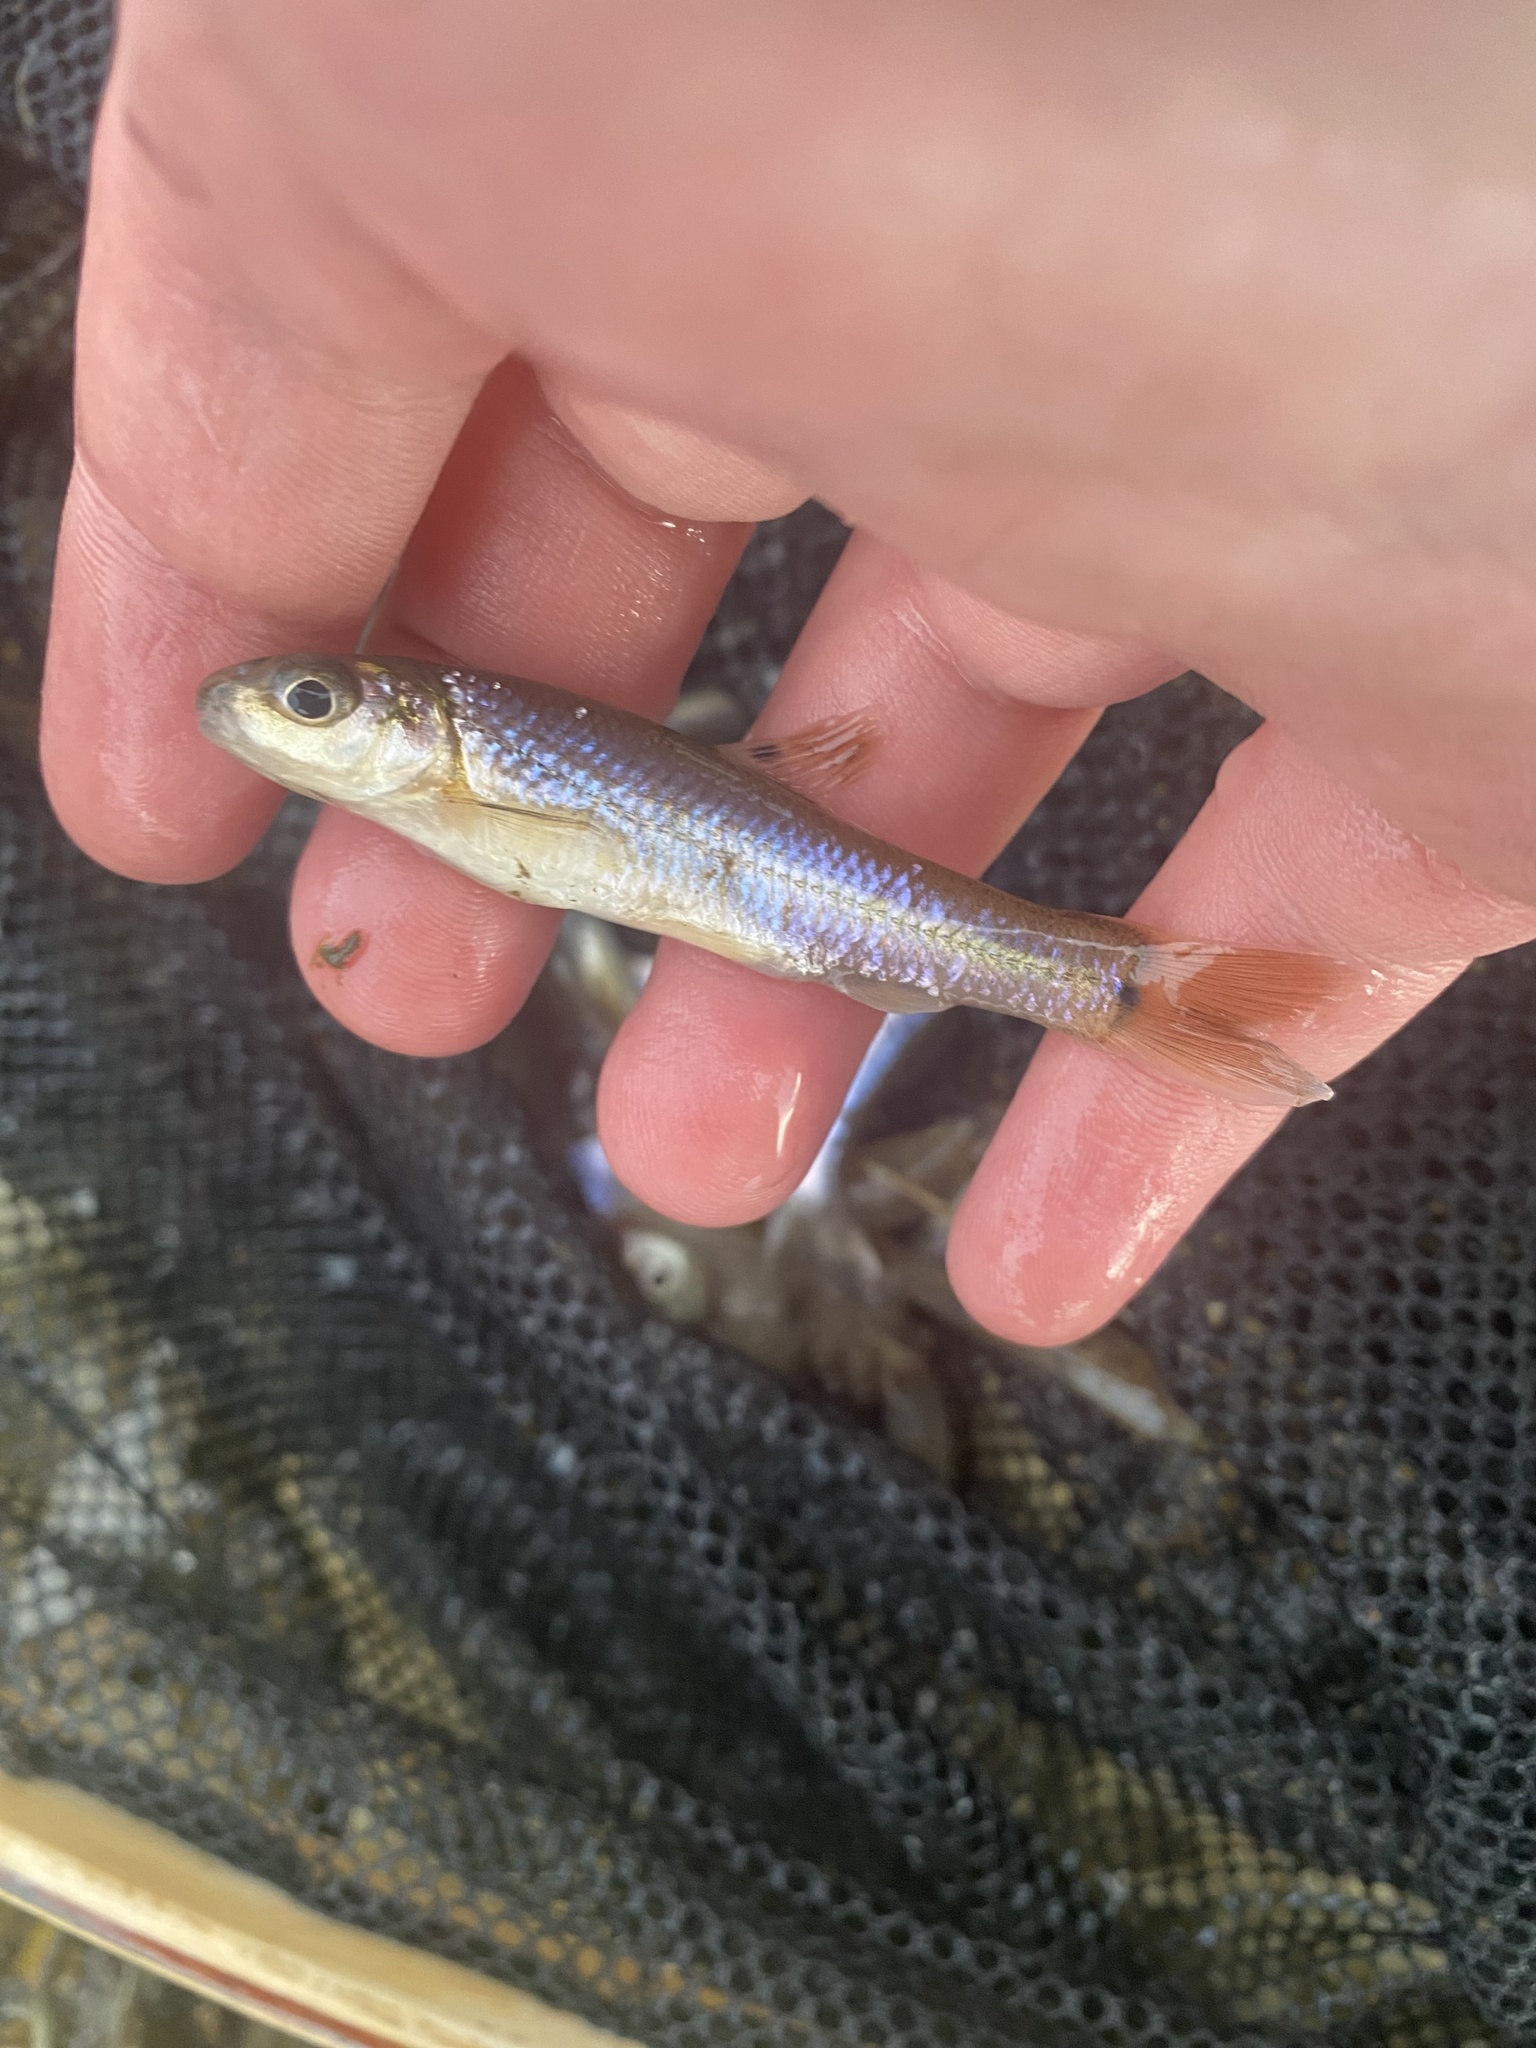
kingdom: Animalia
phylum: Chordata
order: Cypriniformes
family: Cyprinidae
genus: Pimephales
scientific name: Pimephales vigilax
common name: Bullhead minnow
